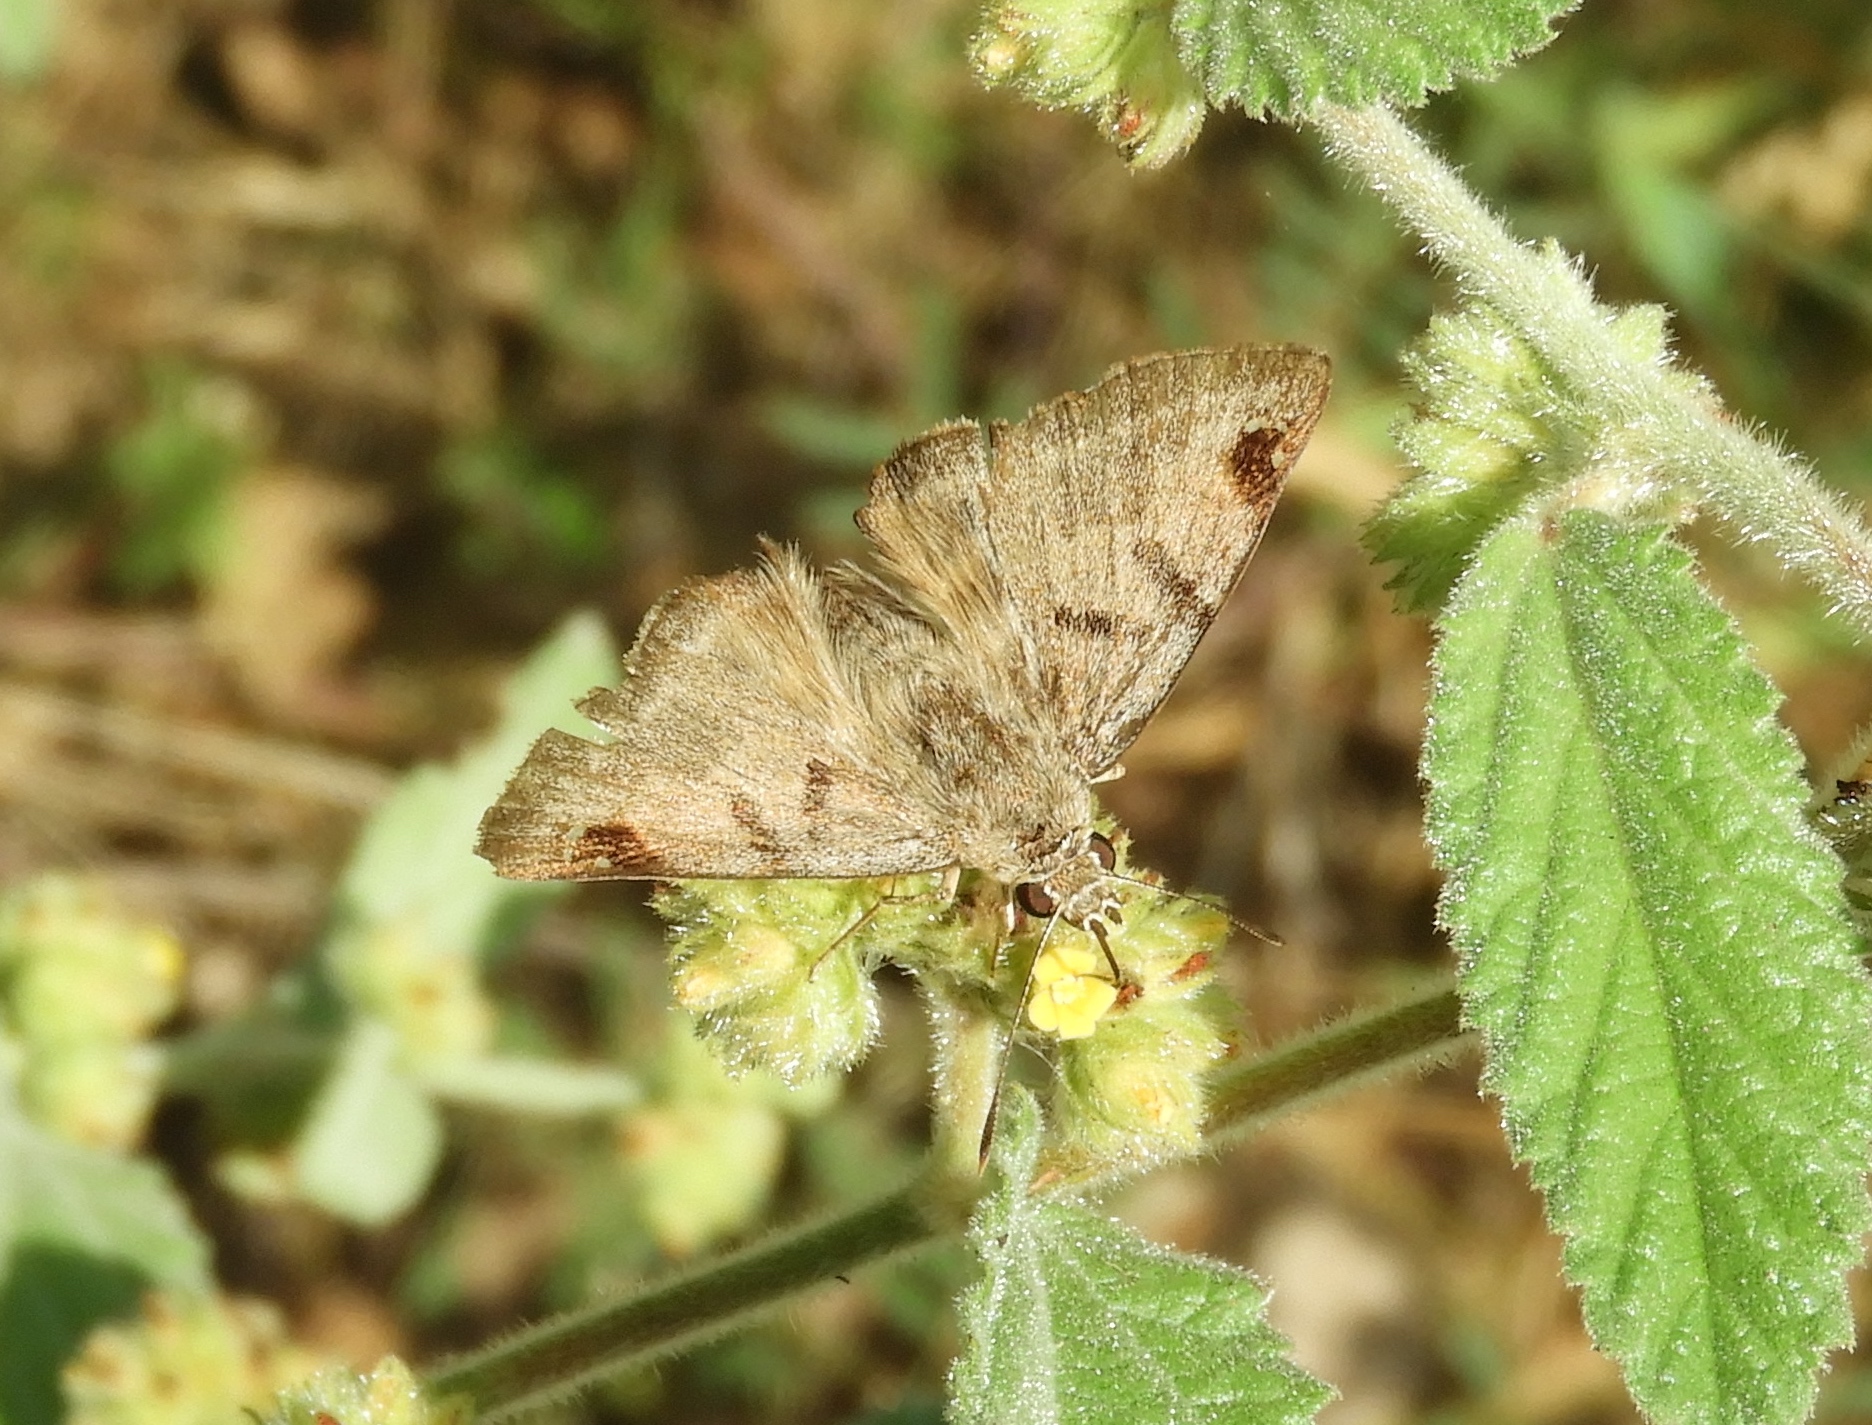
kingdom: Animalia
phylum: Arthropoda
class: Insecta
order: Lepidoptera
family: Hesperiidae
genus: Arteurotia
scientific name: Arteurotia tractipennis
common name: Starred skipper
